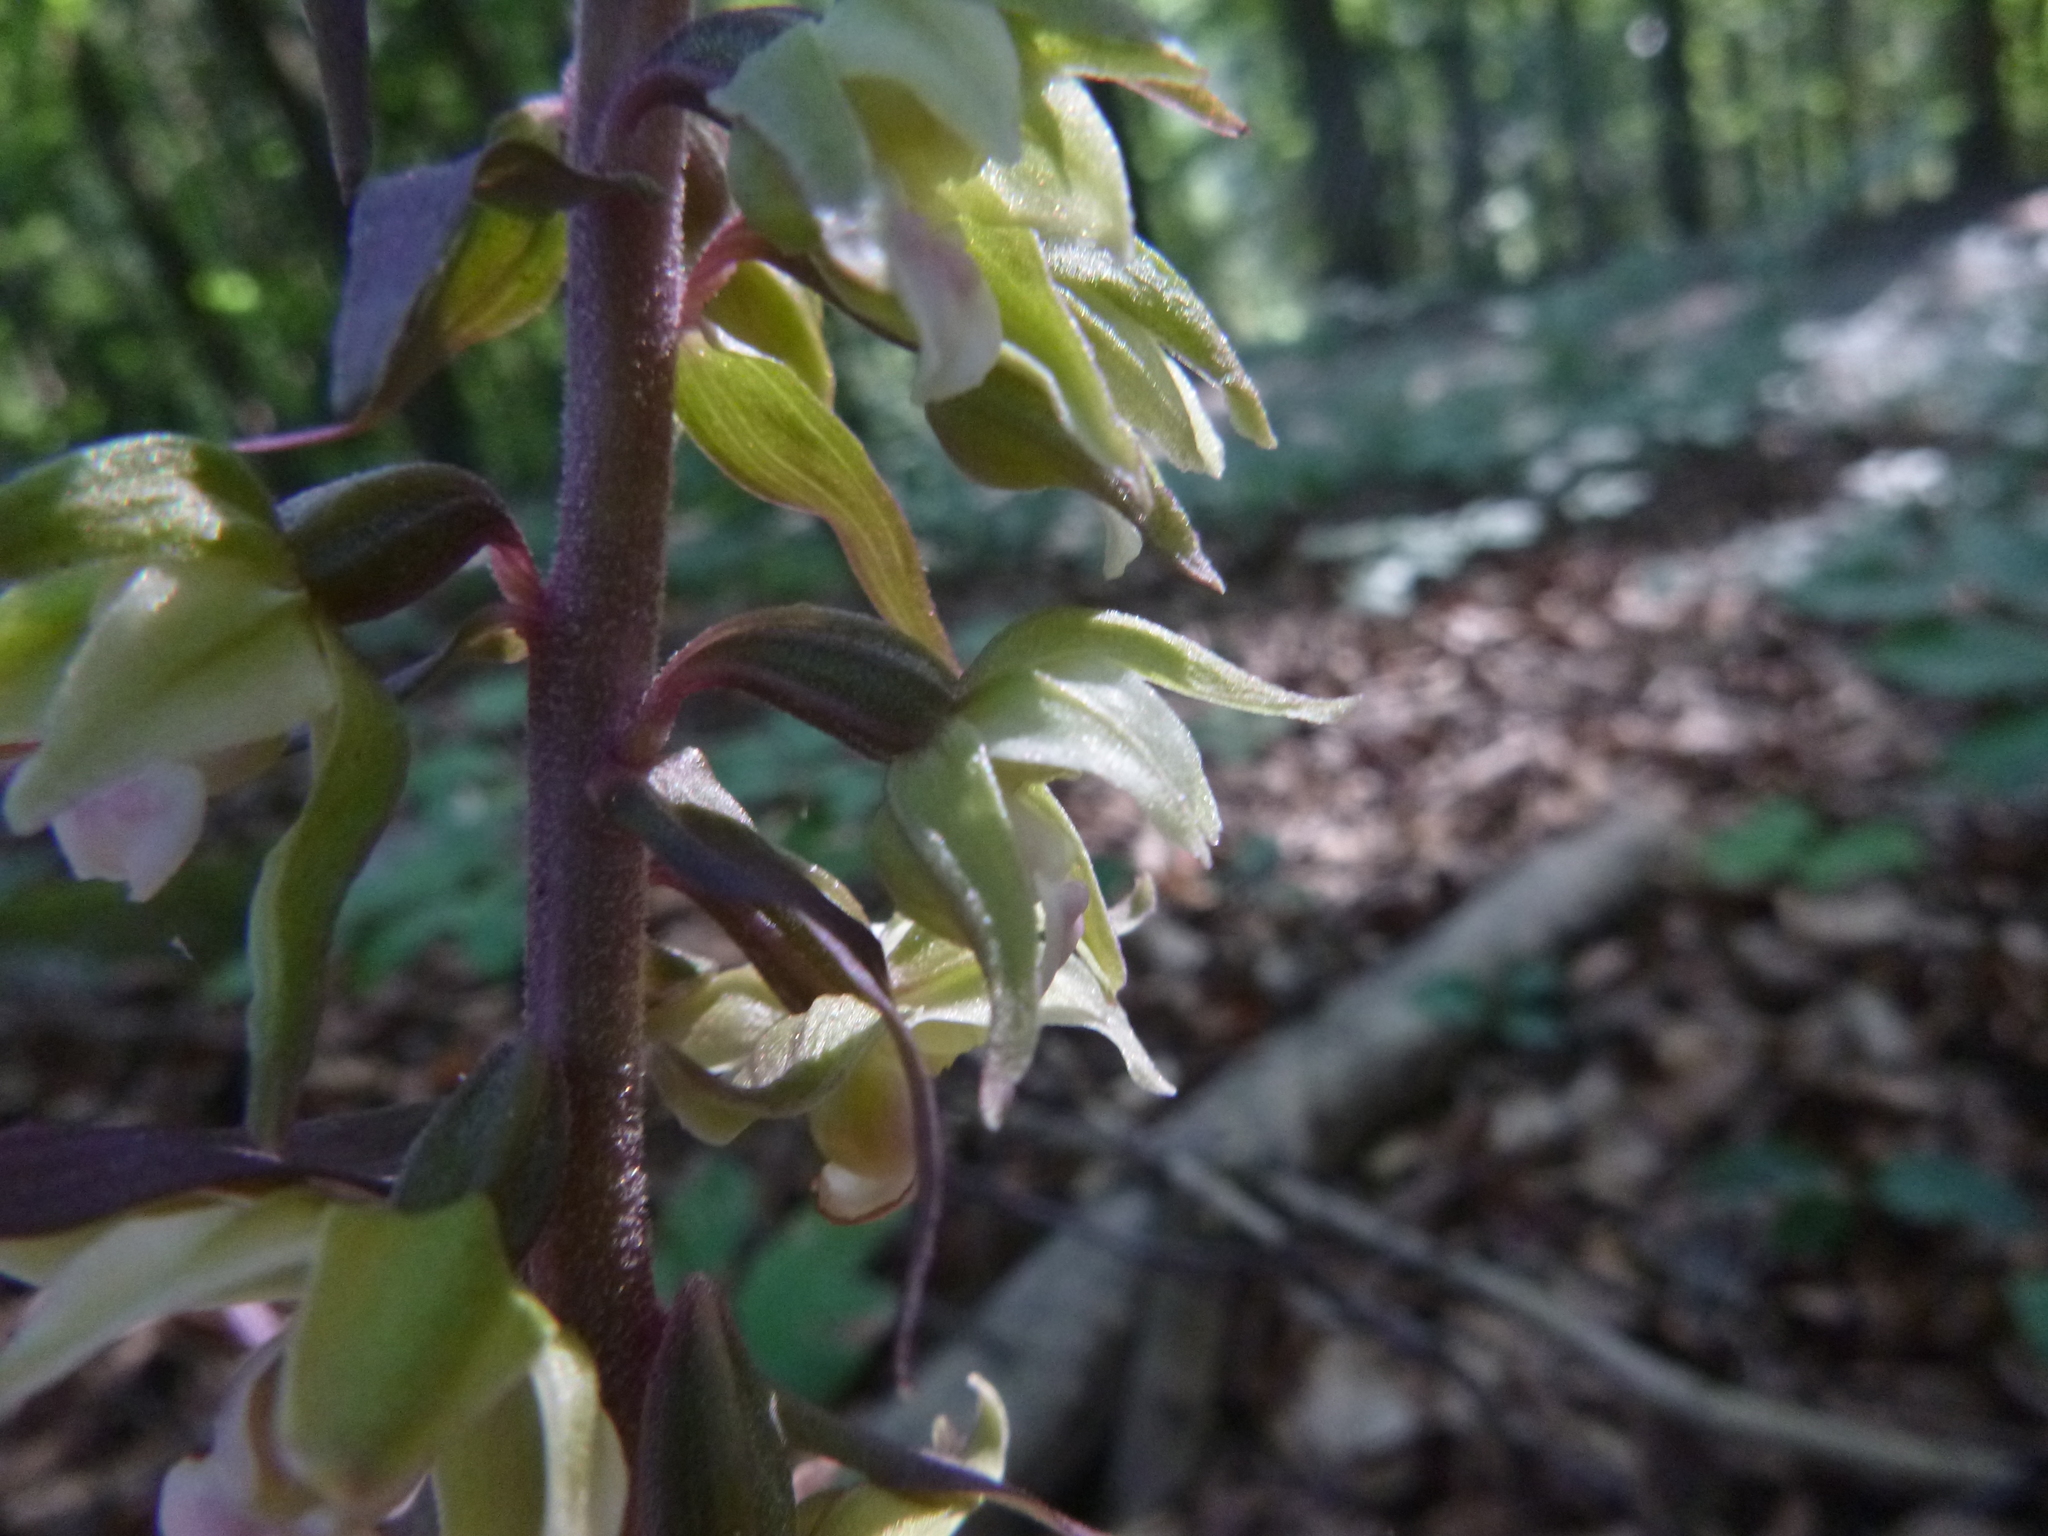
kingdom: Plantae
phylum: Tracheophyta
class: Liliopsida
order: Asparagales
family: Orchidaceae
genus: Epipactis
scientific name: Epipactis purpurata
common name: Violet helleborine
